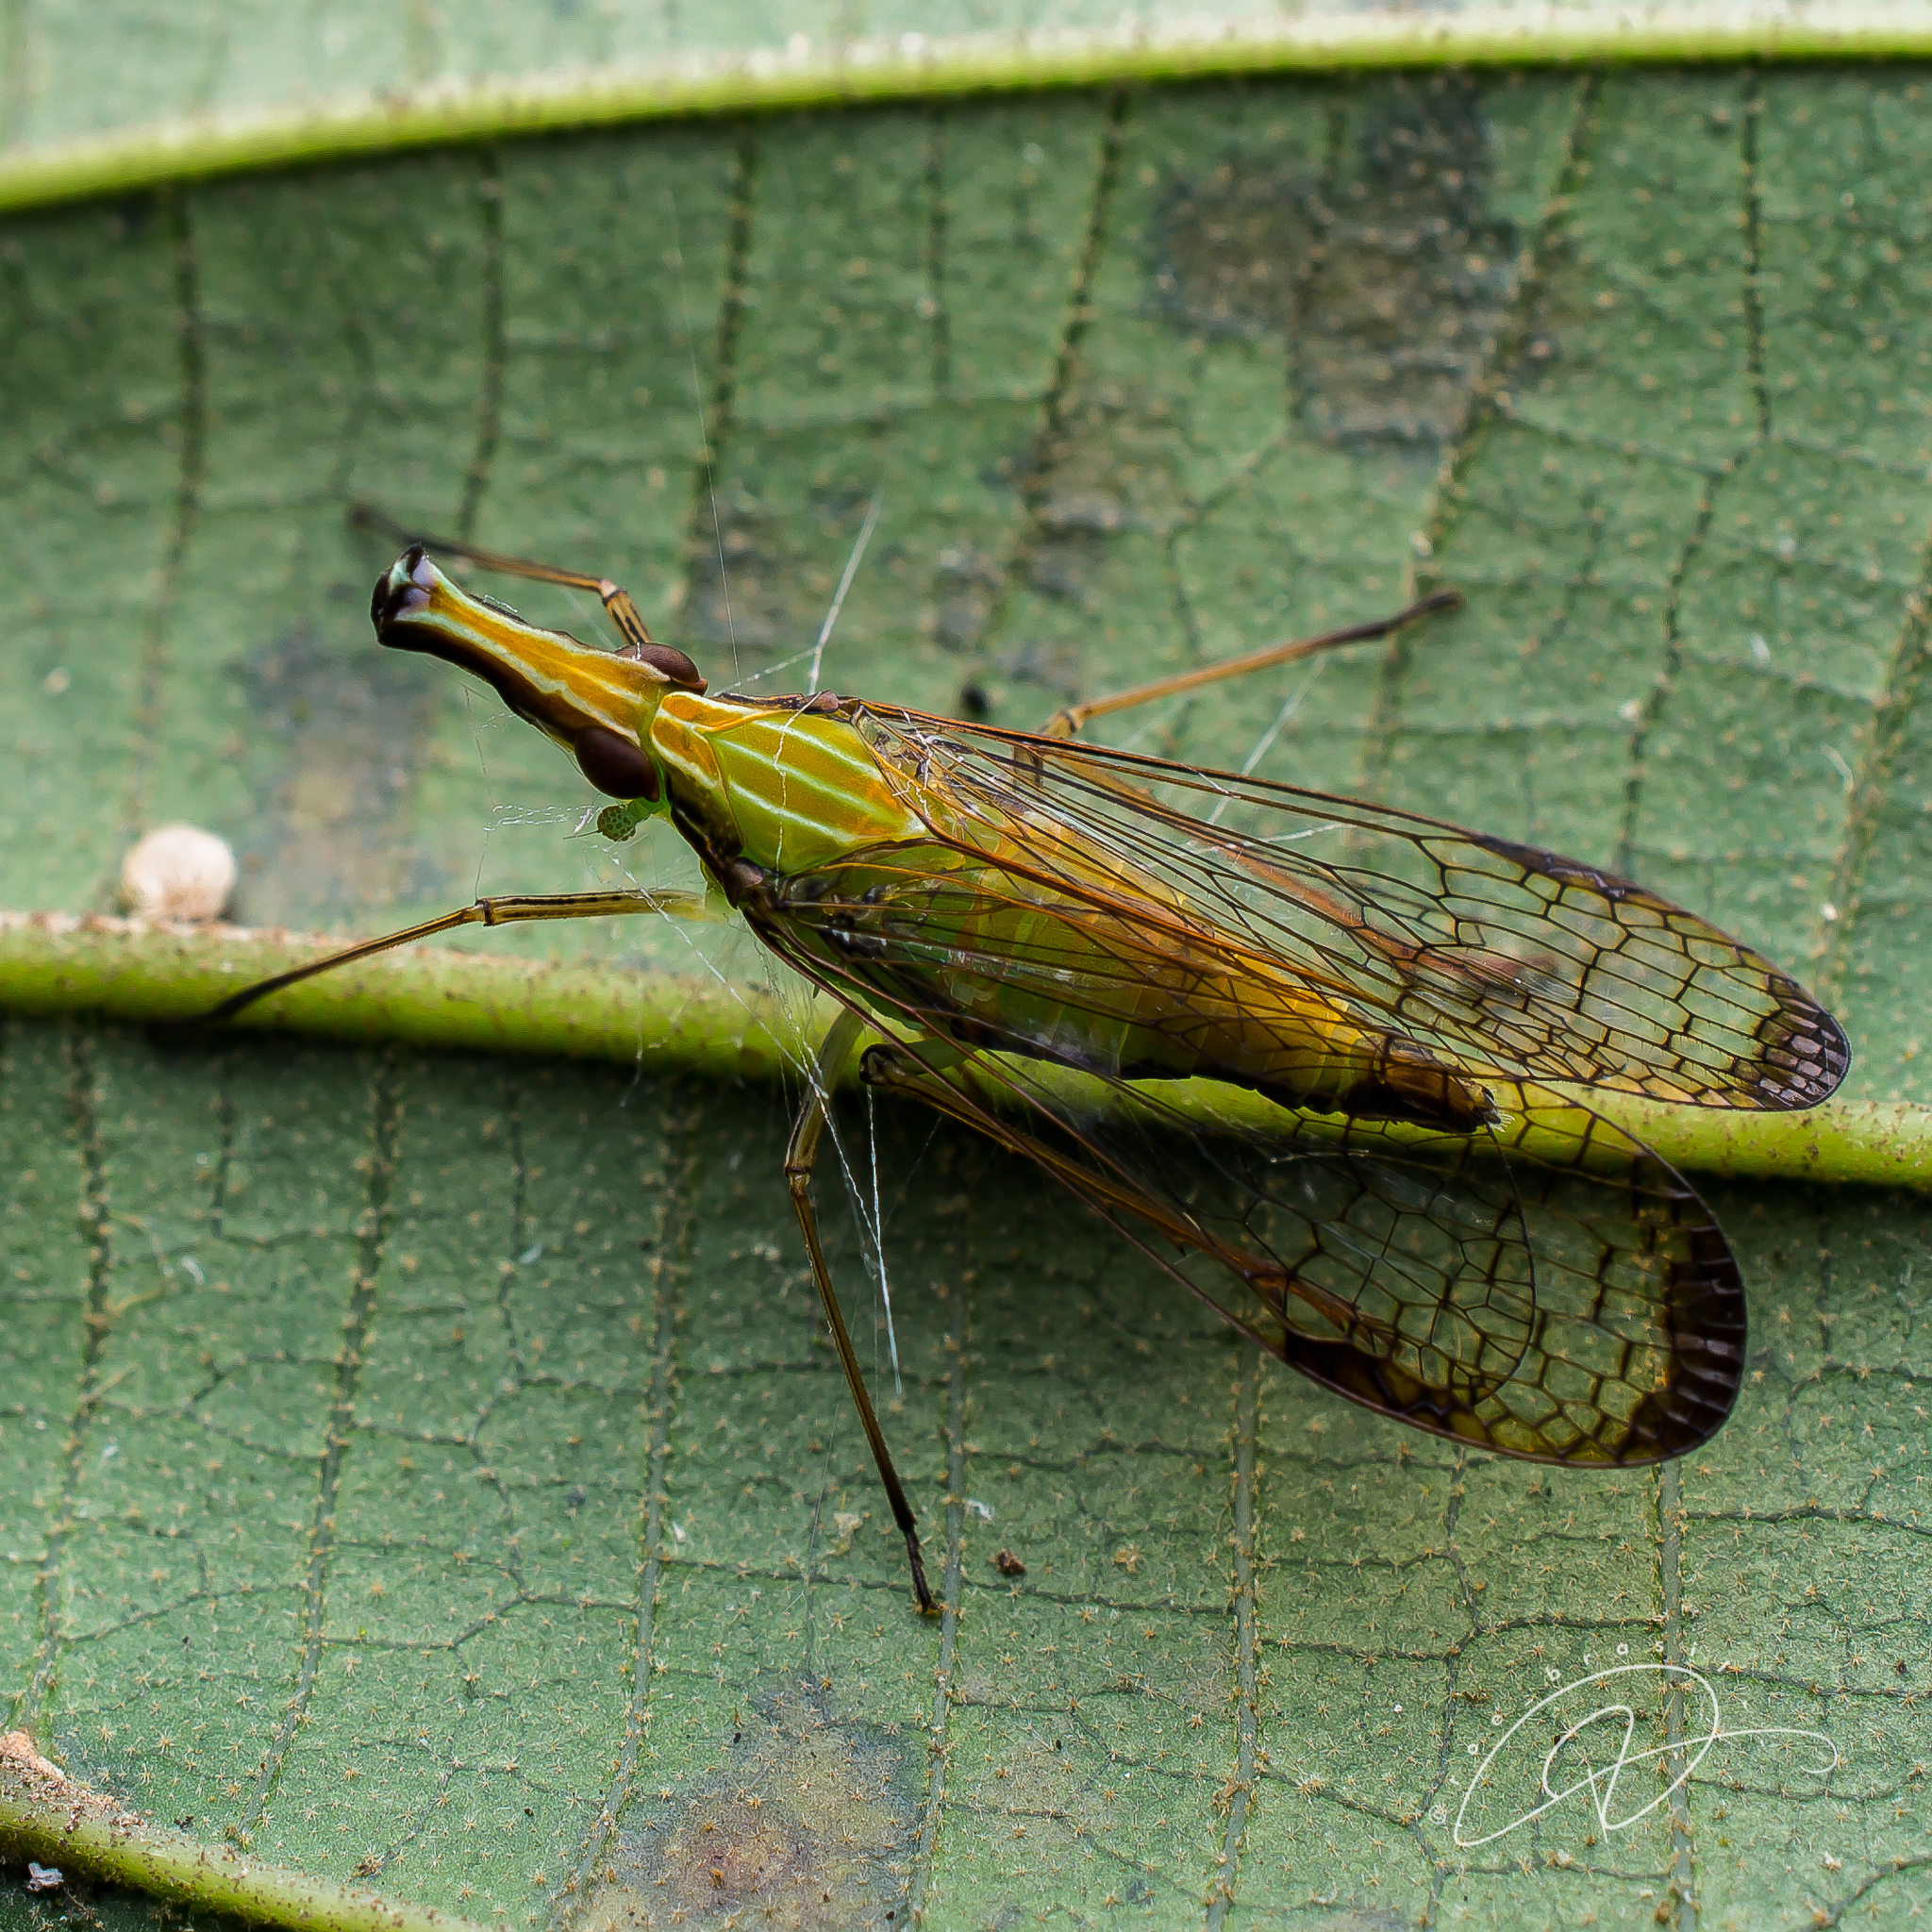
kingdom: Animalia
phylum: Arthropoda
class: Insecta
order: Hemiptera
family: Dictyopharidae
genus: Paralappida
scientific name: Paralappida limbativentris
